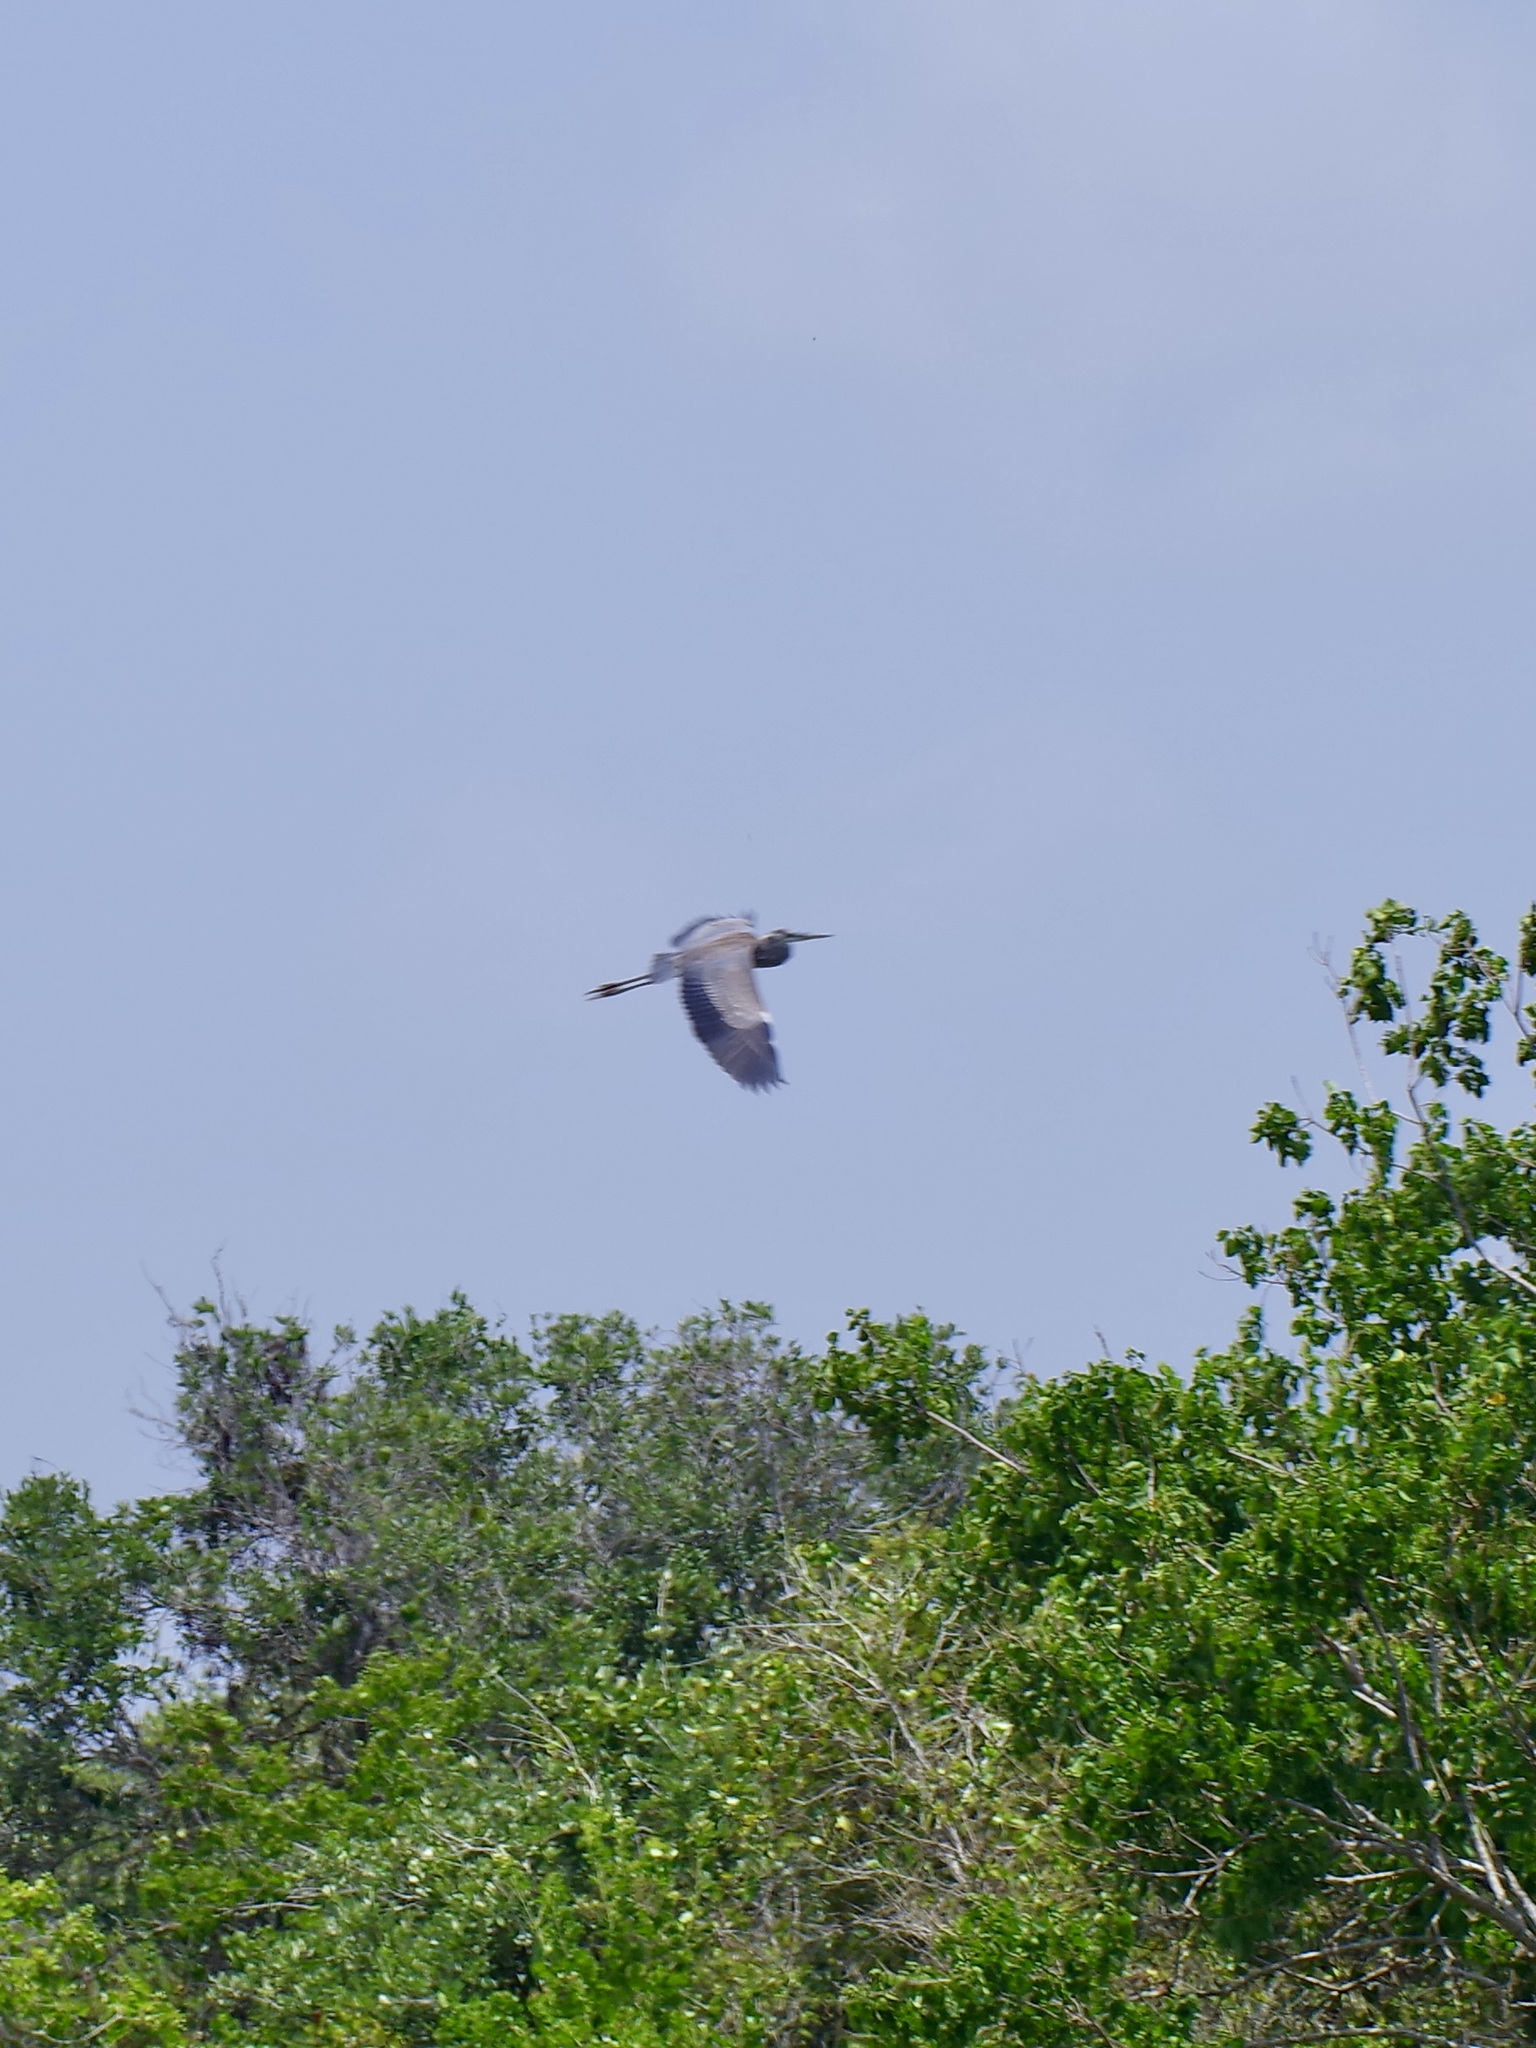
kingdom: Animalia
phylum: Chordata
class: Aves
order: Pelecaniformes
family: Ardeidae
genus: Ardea
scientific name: Ardea herodias
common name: Great blue heron
